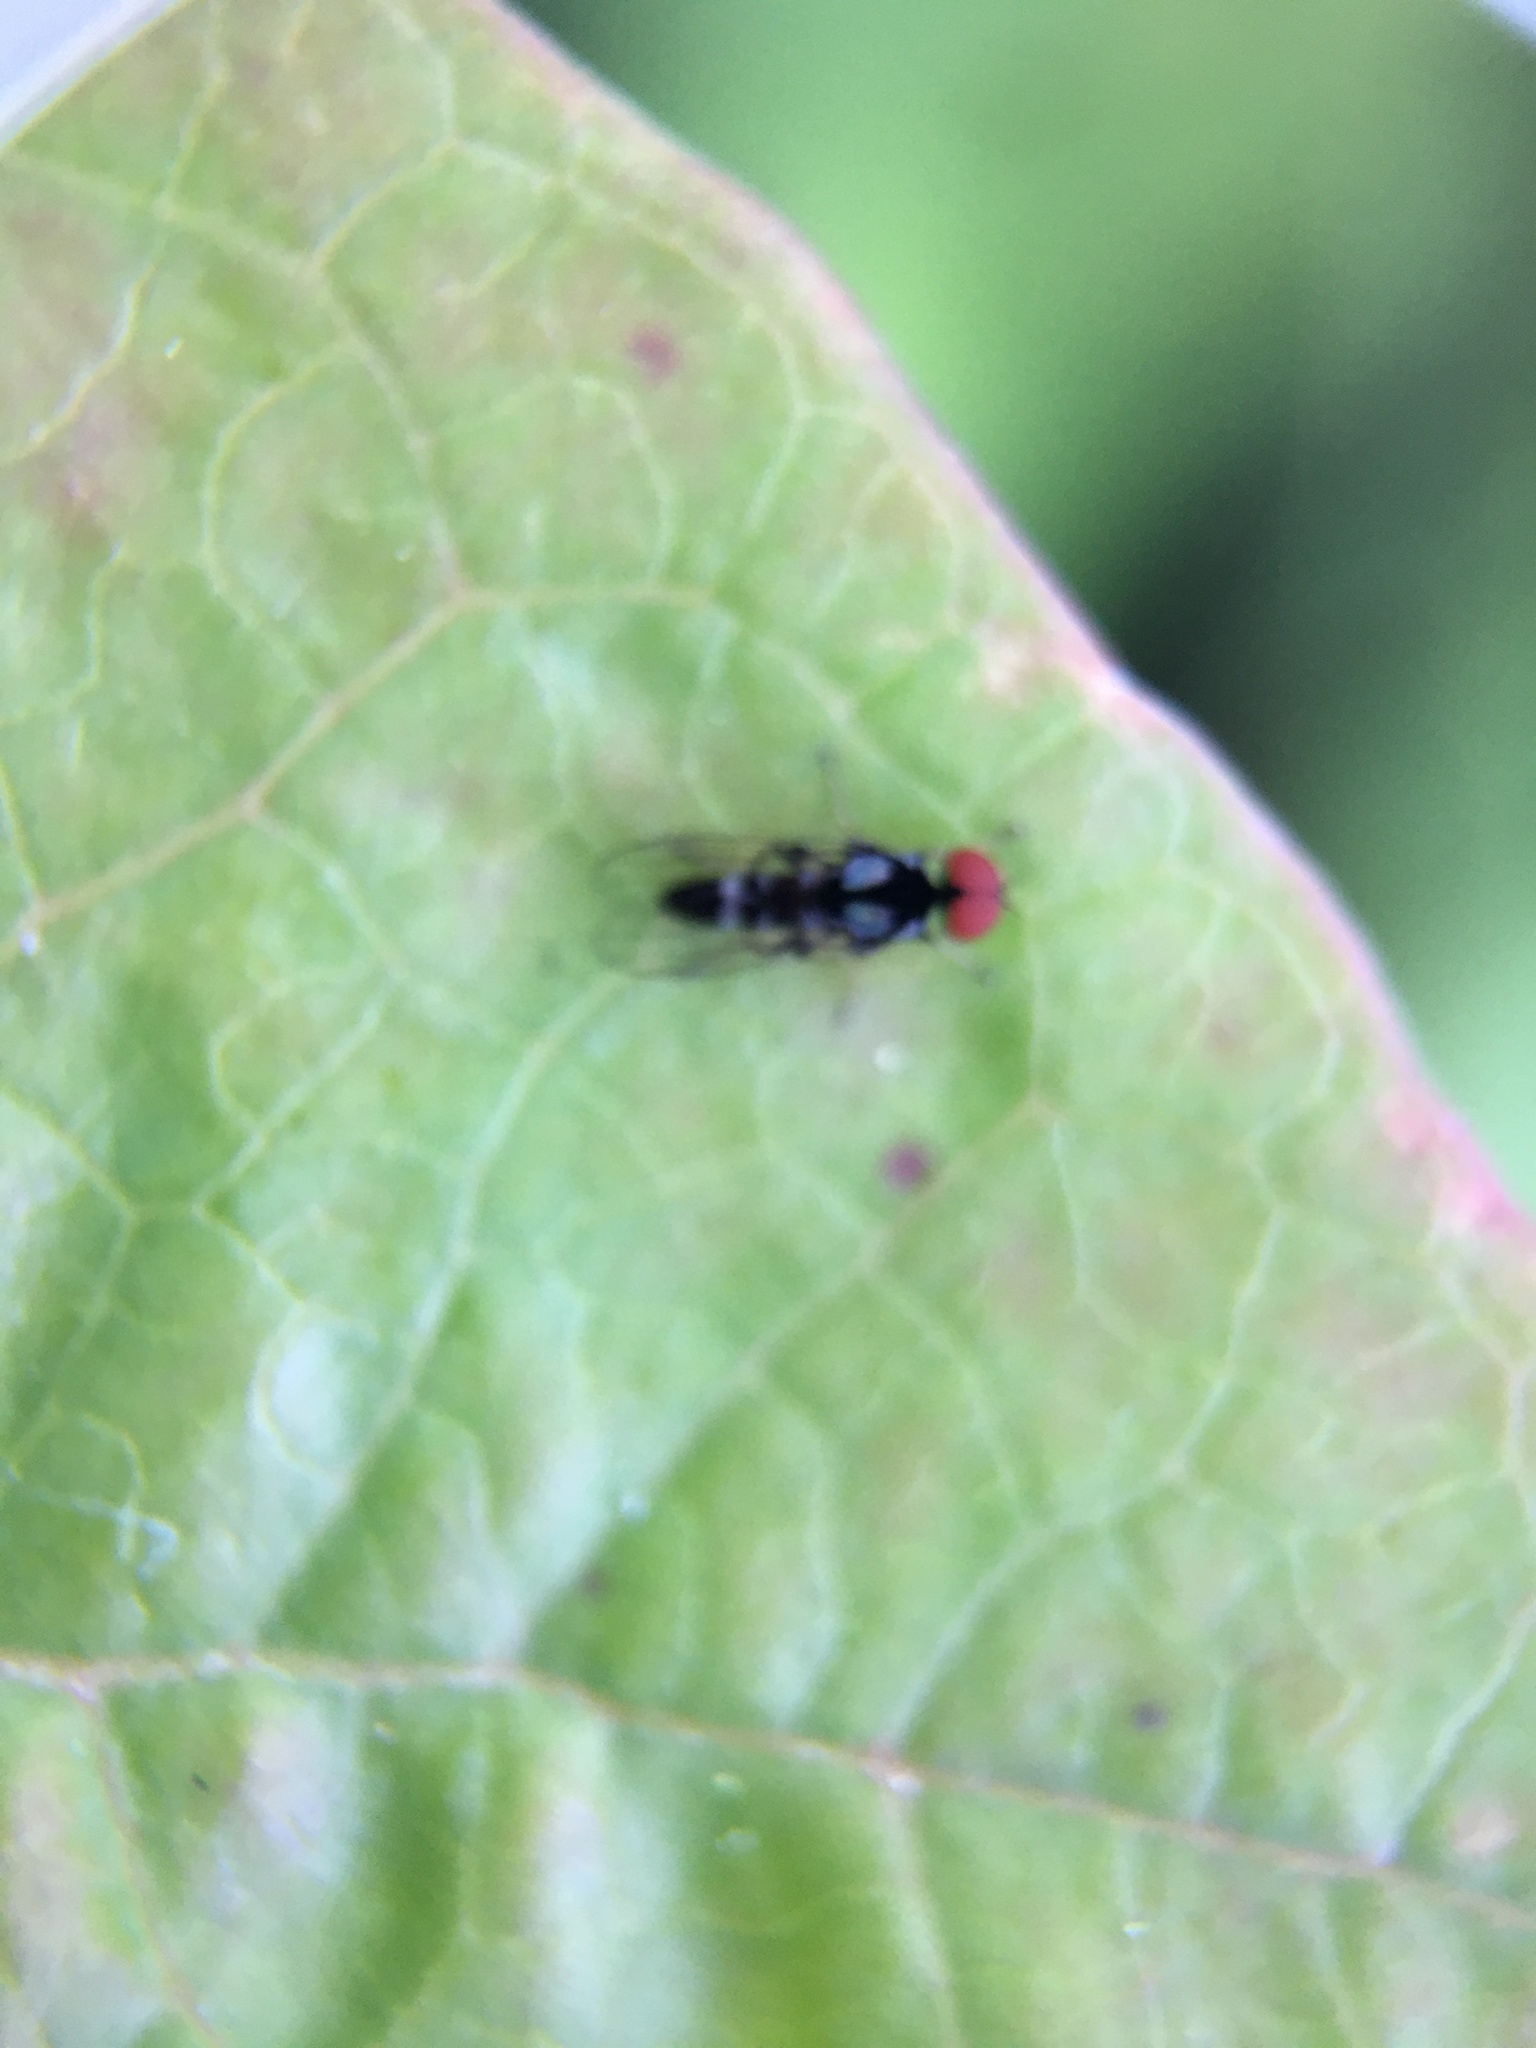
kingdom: Animalia
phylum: Arthropoda
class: Insecta
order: Diptera
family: Platypezidae
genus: Bertamyia
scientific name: Bertamyia notata
